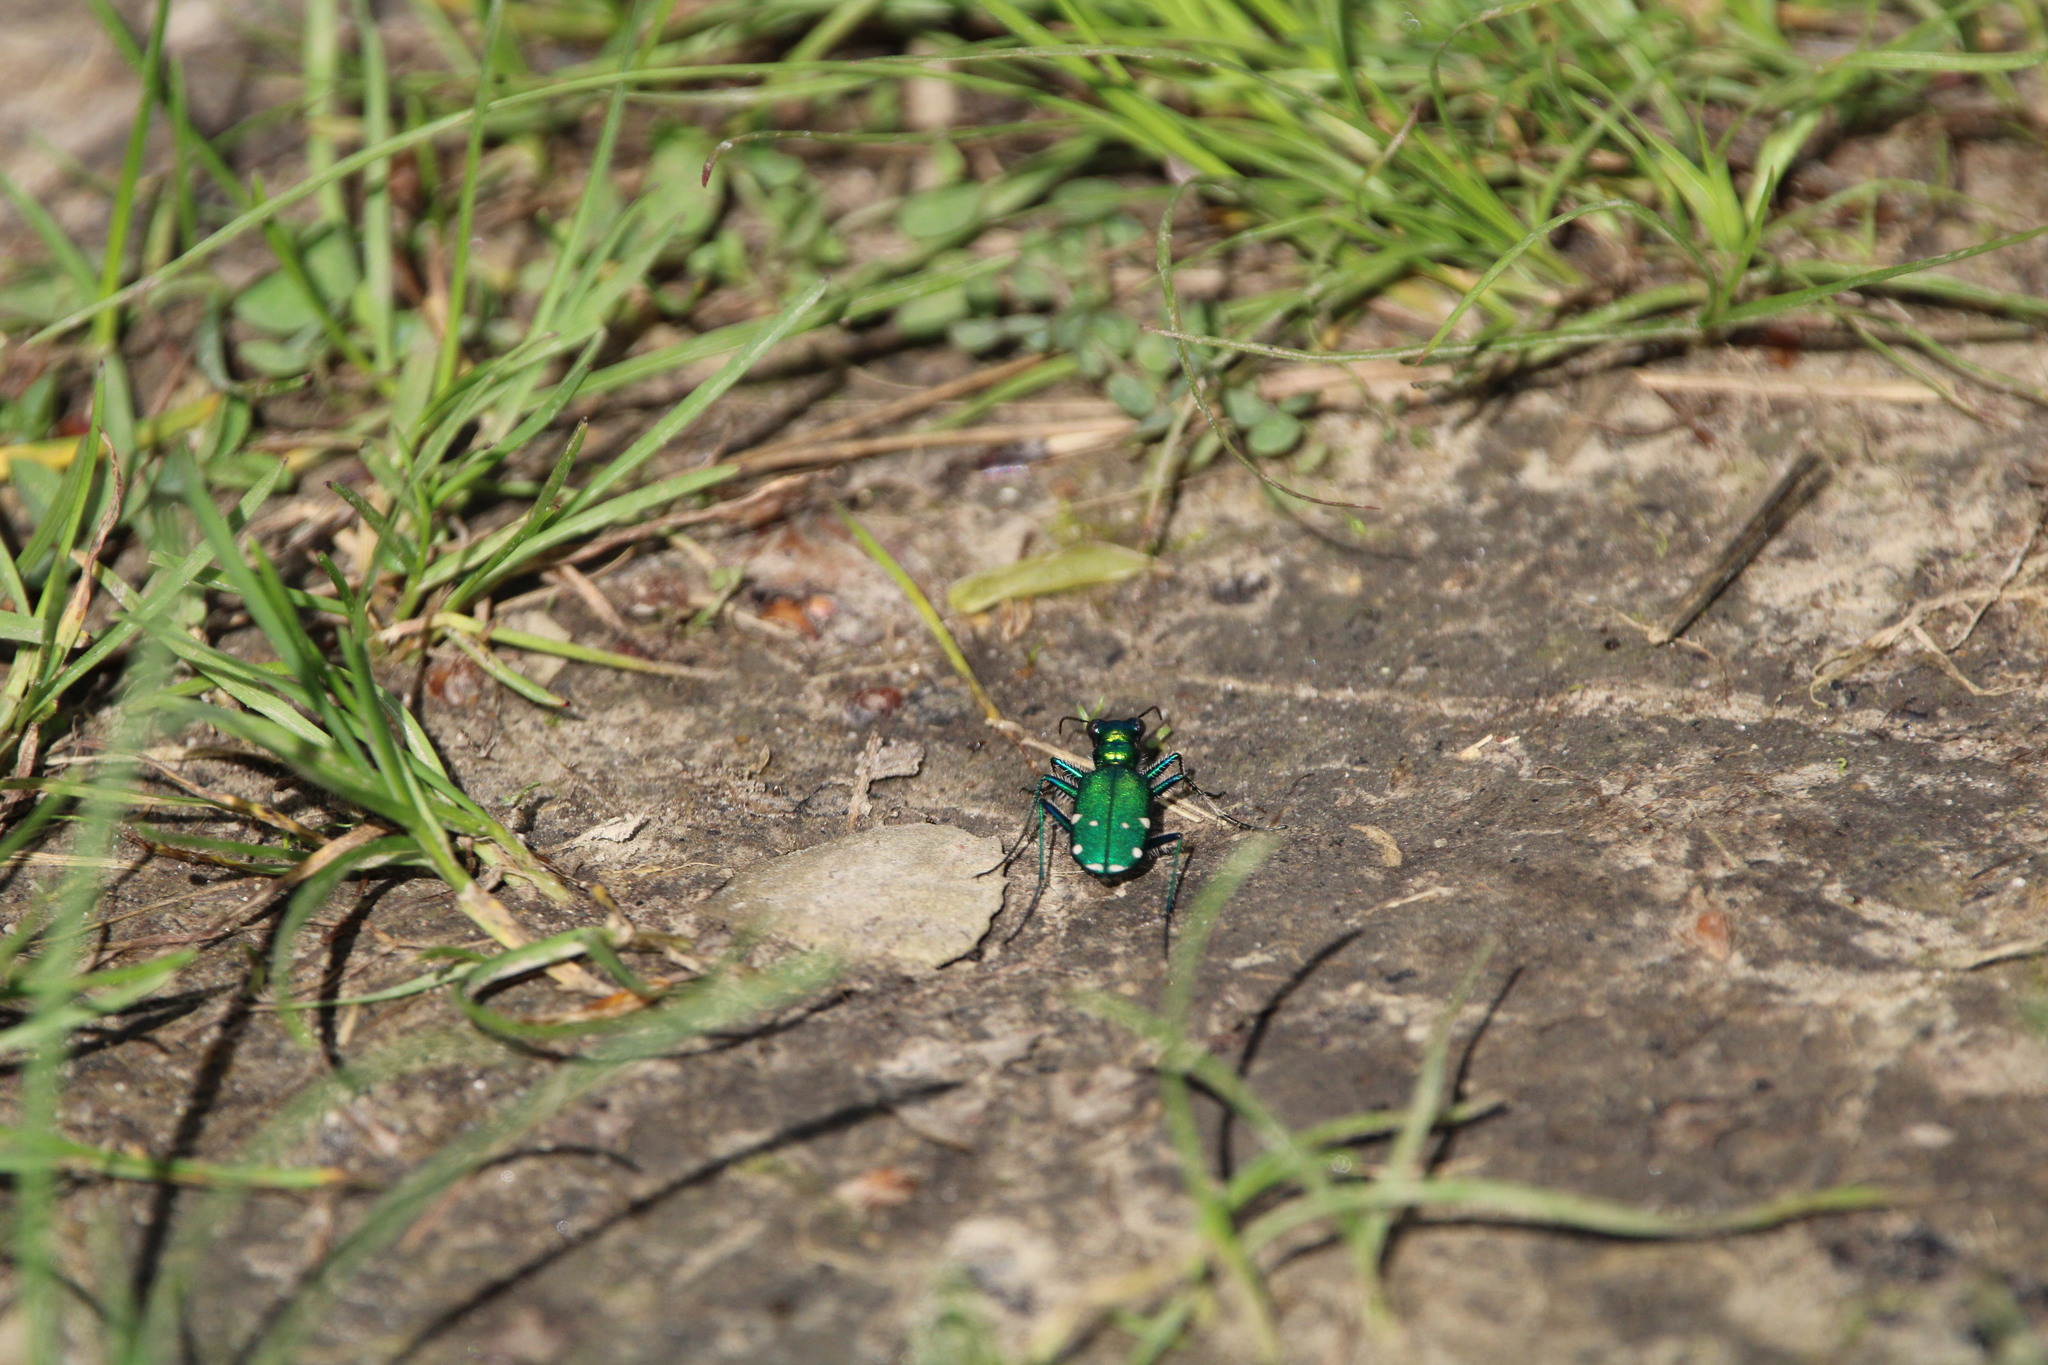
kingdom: Animalia
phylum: Arthropoda
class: Insecta
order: Coleoptera
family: Carabidae
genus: Cicindela
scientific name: Cicindela sexguttata
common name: Six-spotted tiger beetle
